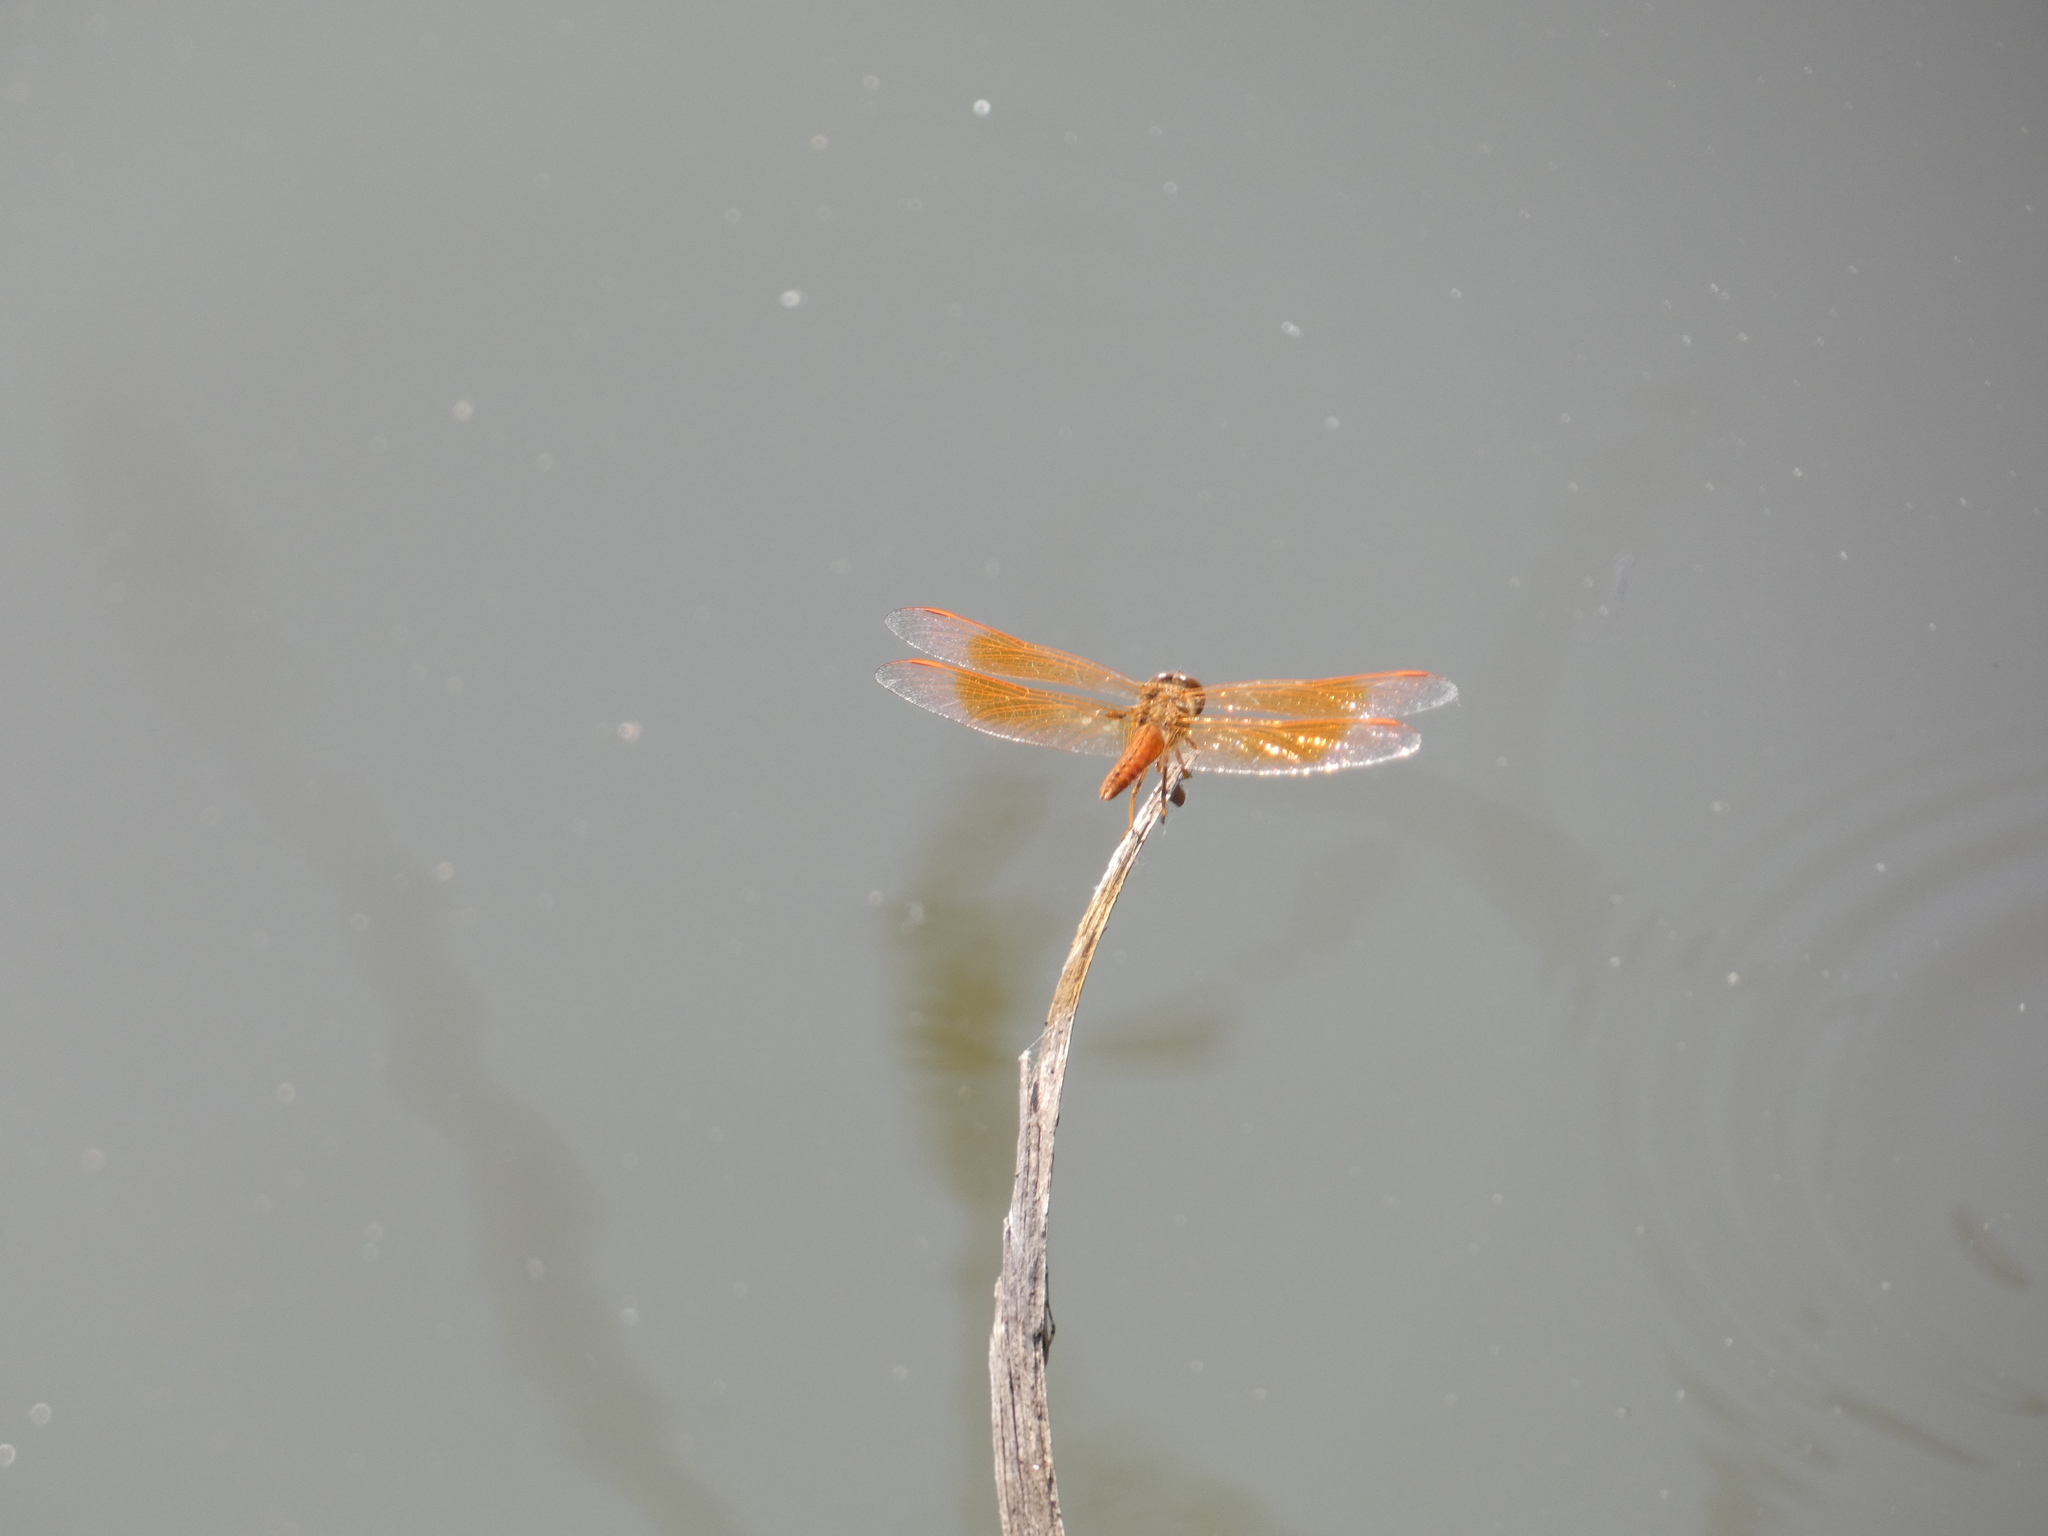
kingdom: Animalia
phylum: Arthropoda
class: Insecta
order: Odonata
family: Libellulidae
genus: Brachythemis
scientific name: Brachythemis contaminata
